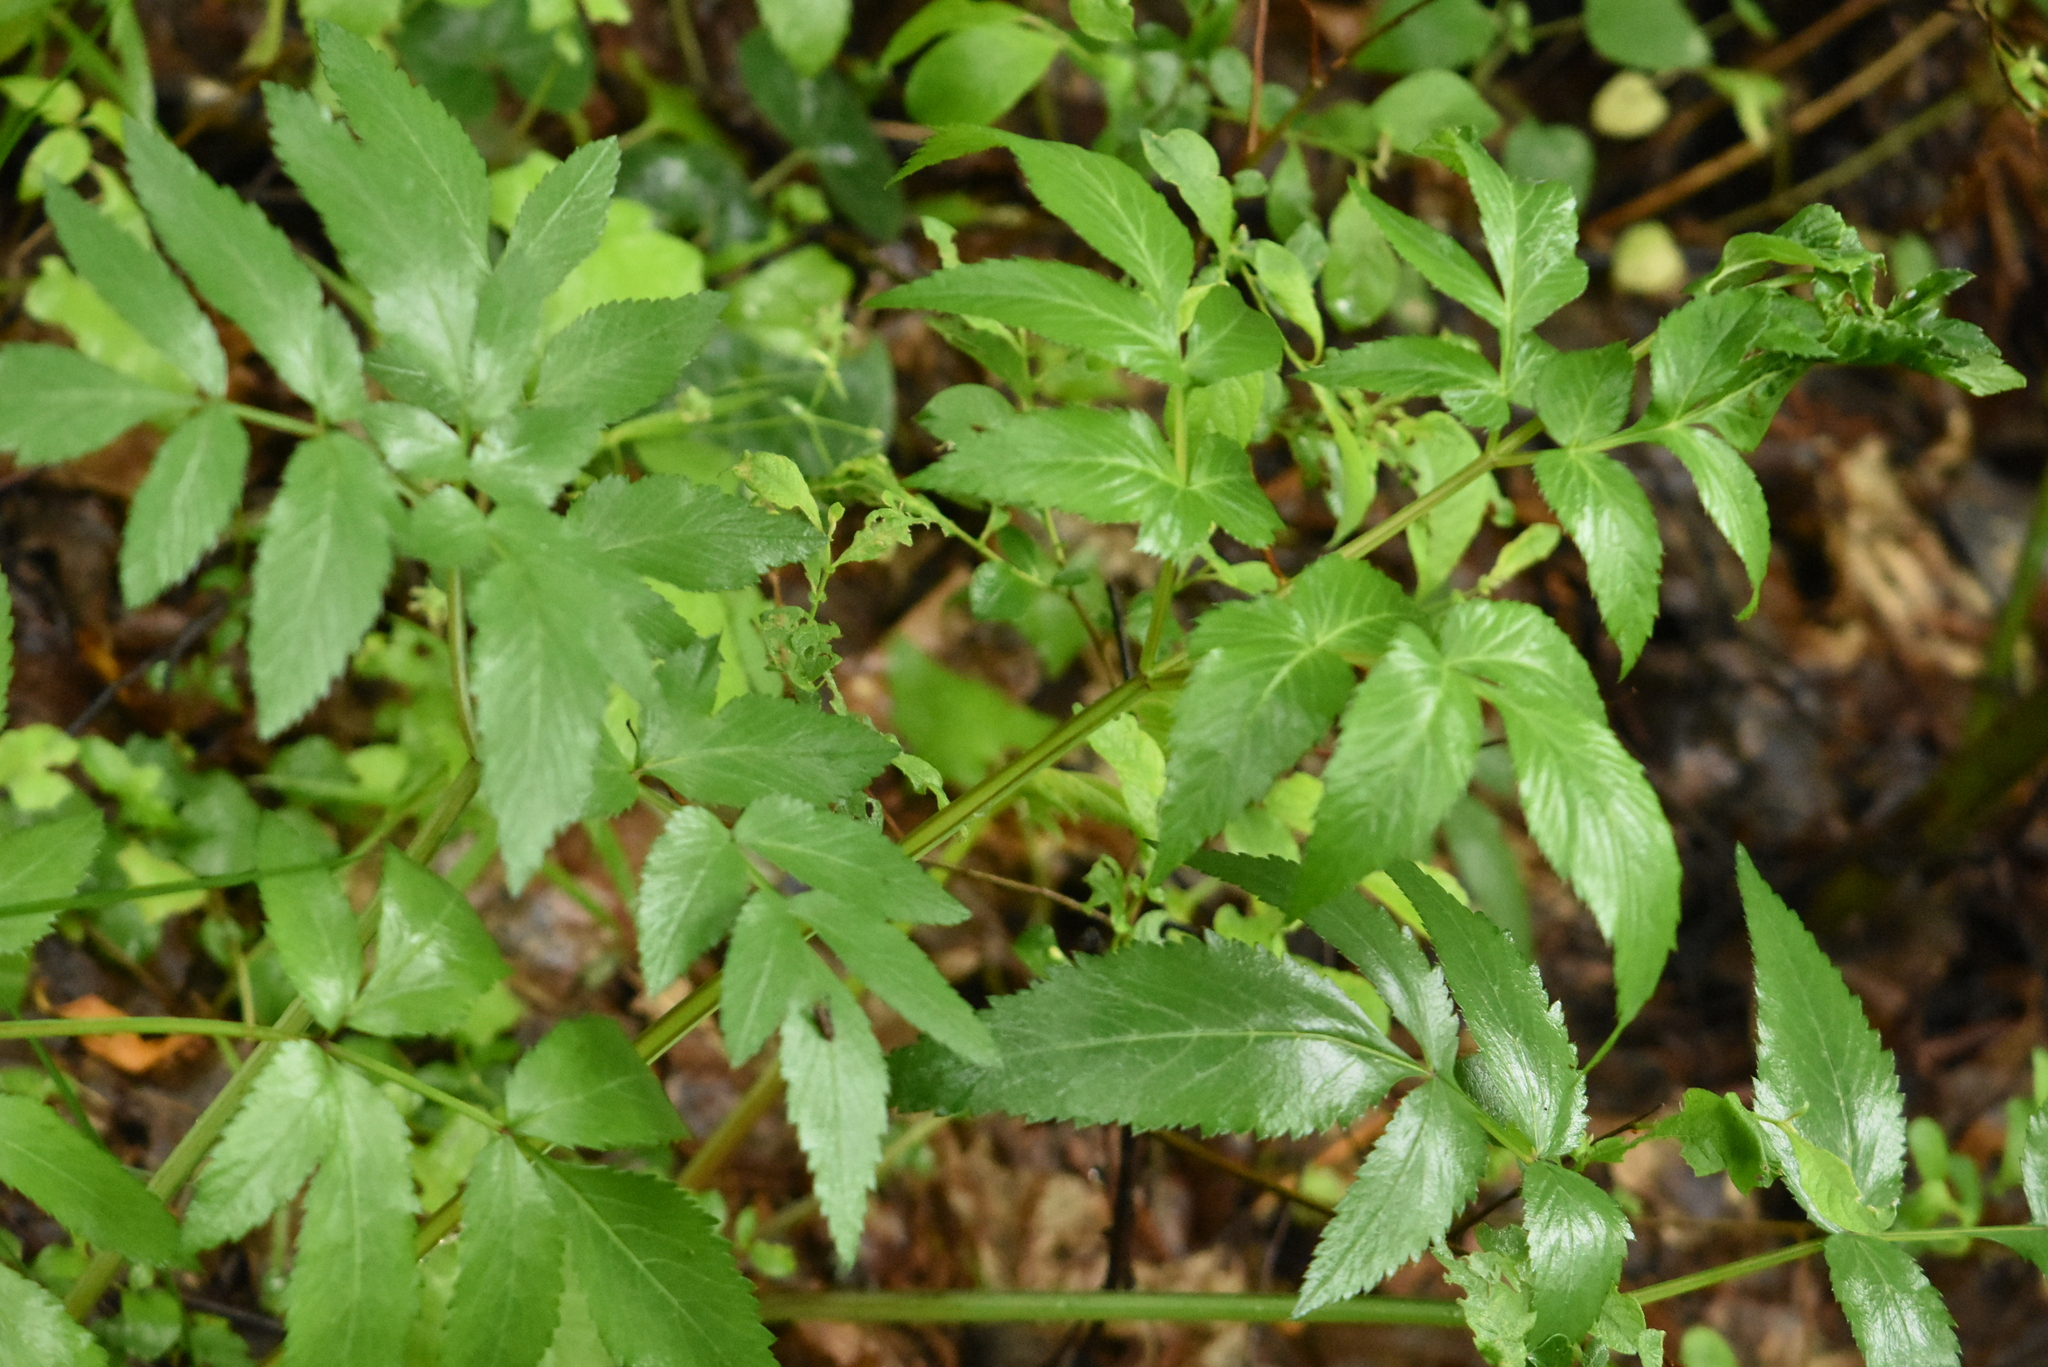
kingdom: Plantae
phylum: Tracheophyta
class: Magnoliopsida
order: Apiales
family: Apiaceae
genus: Angelica
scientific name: Angelica sylvestris
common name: Wild angelica
